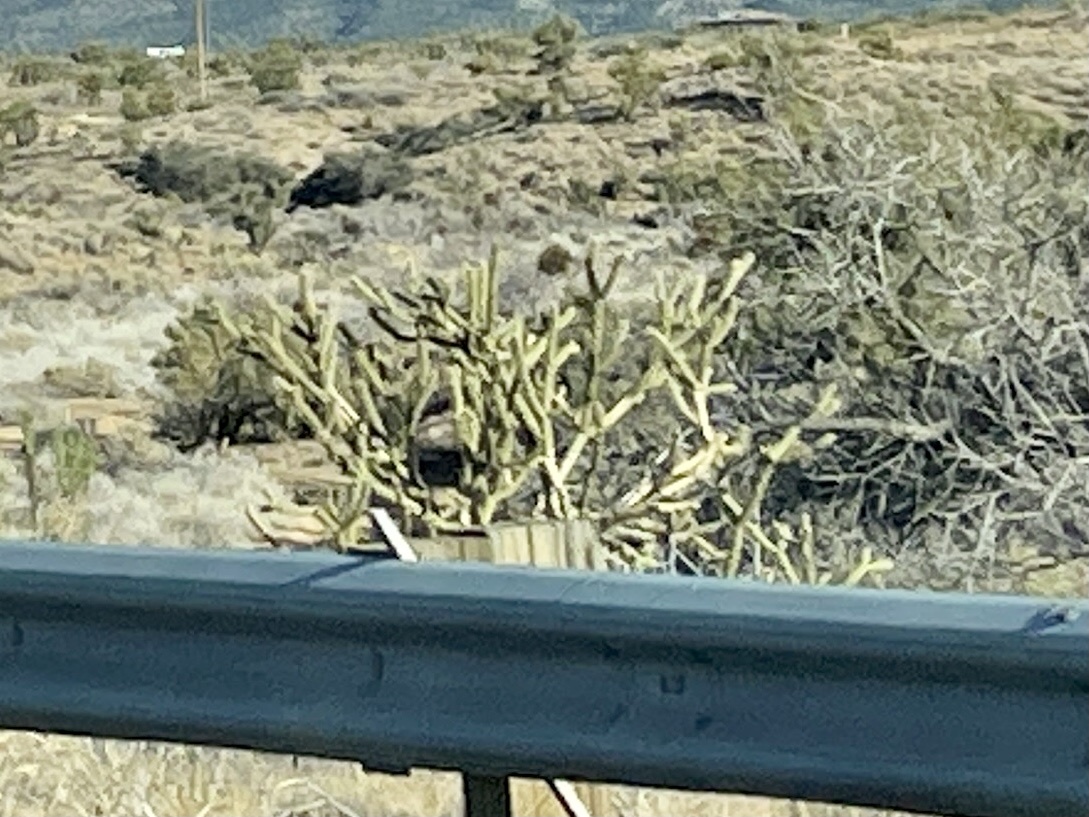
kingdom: Plantae
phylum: Tracheophyta
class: Magnoliopsida
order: Caryophyllales
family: Cactaceae
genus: Cylindropuntia
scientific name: Cylindropuntia acanthocarpa
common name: Buckhorn cholla
